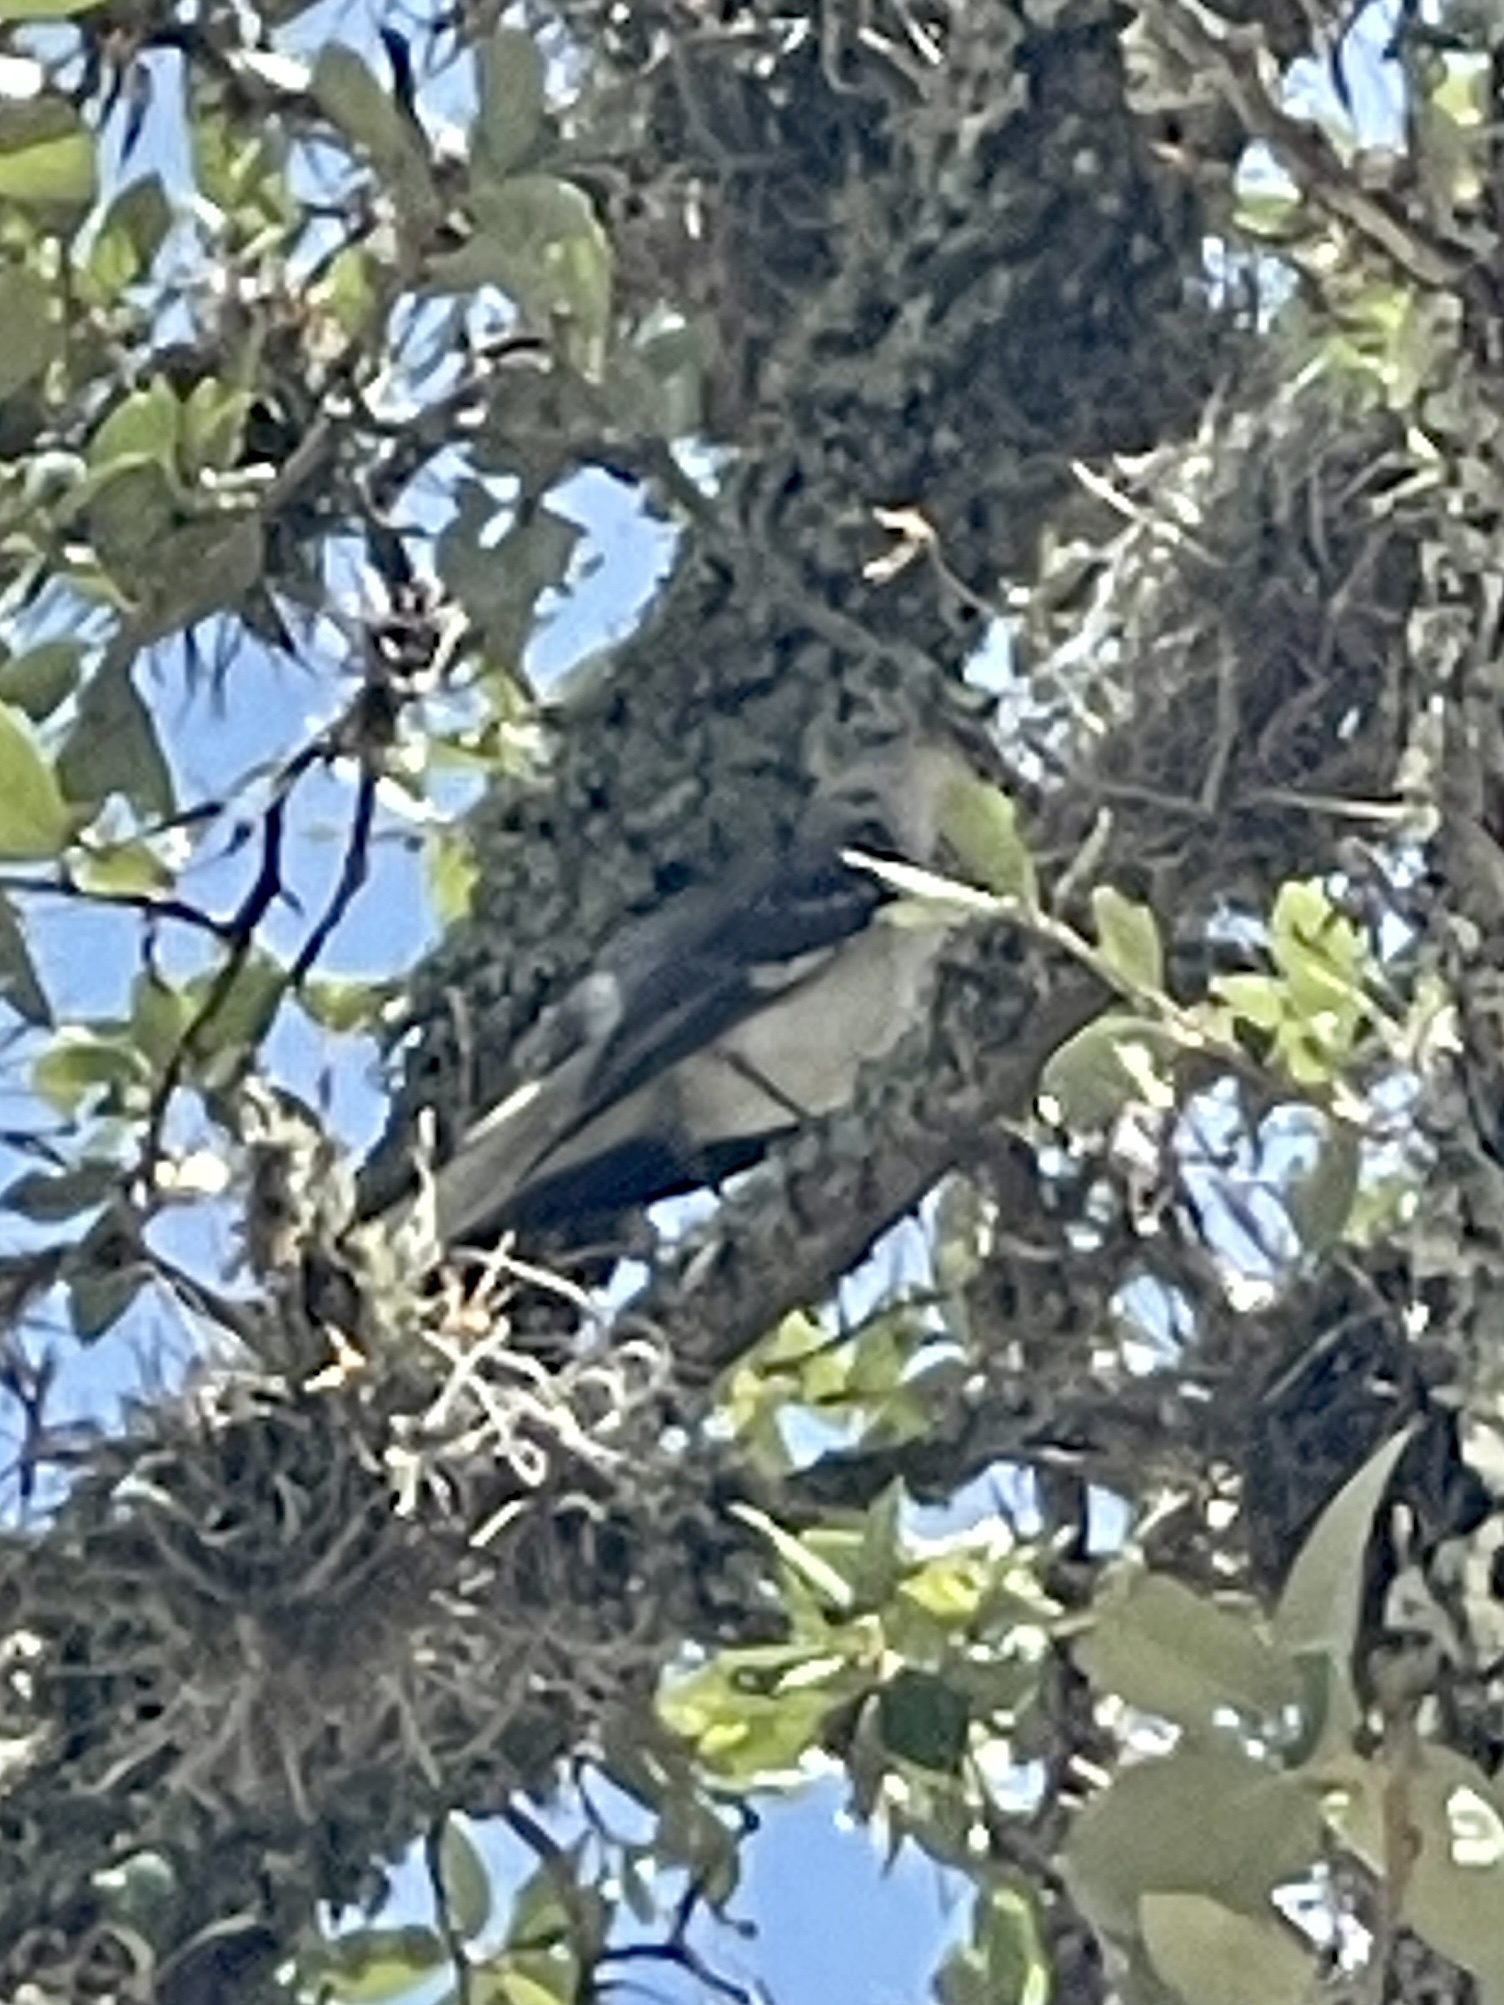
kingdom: Animalia
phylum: Chordata
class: Aves
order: Passeriformes
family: Mimidae
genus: Mimus
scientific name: Mimus polyglottos
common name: Northern mockingbird
